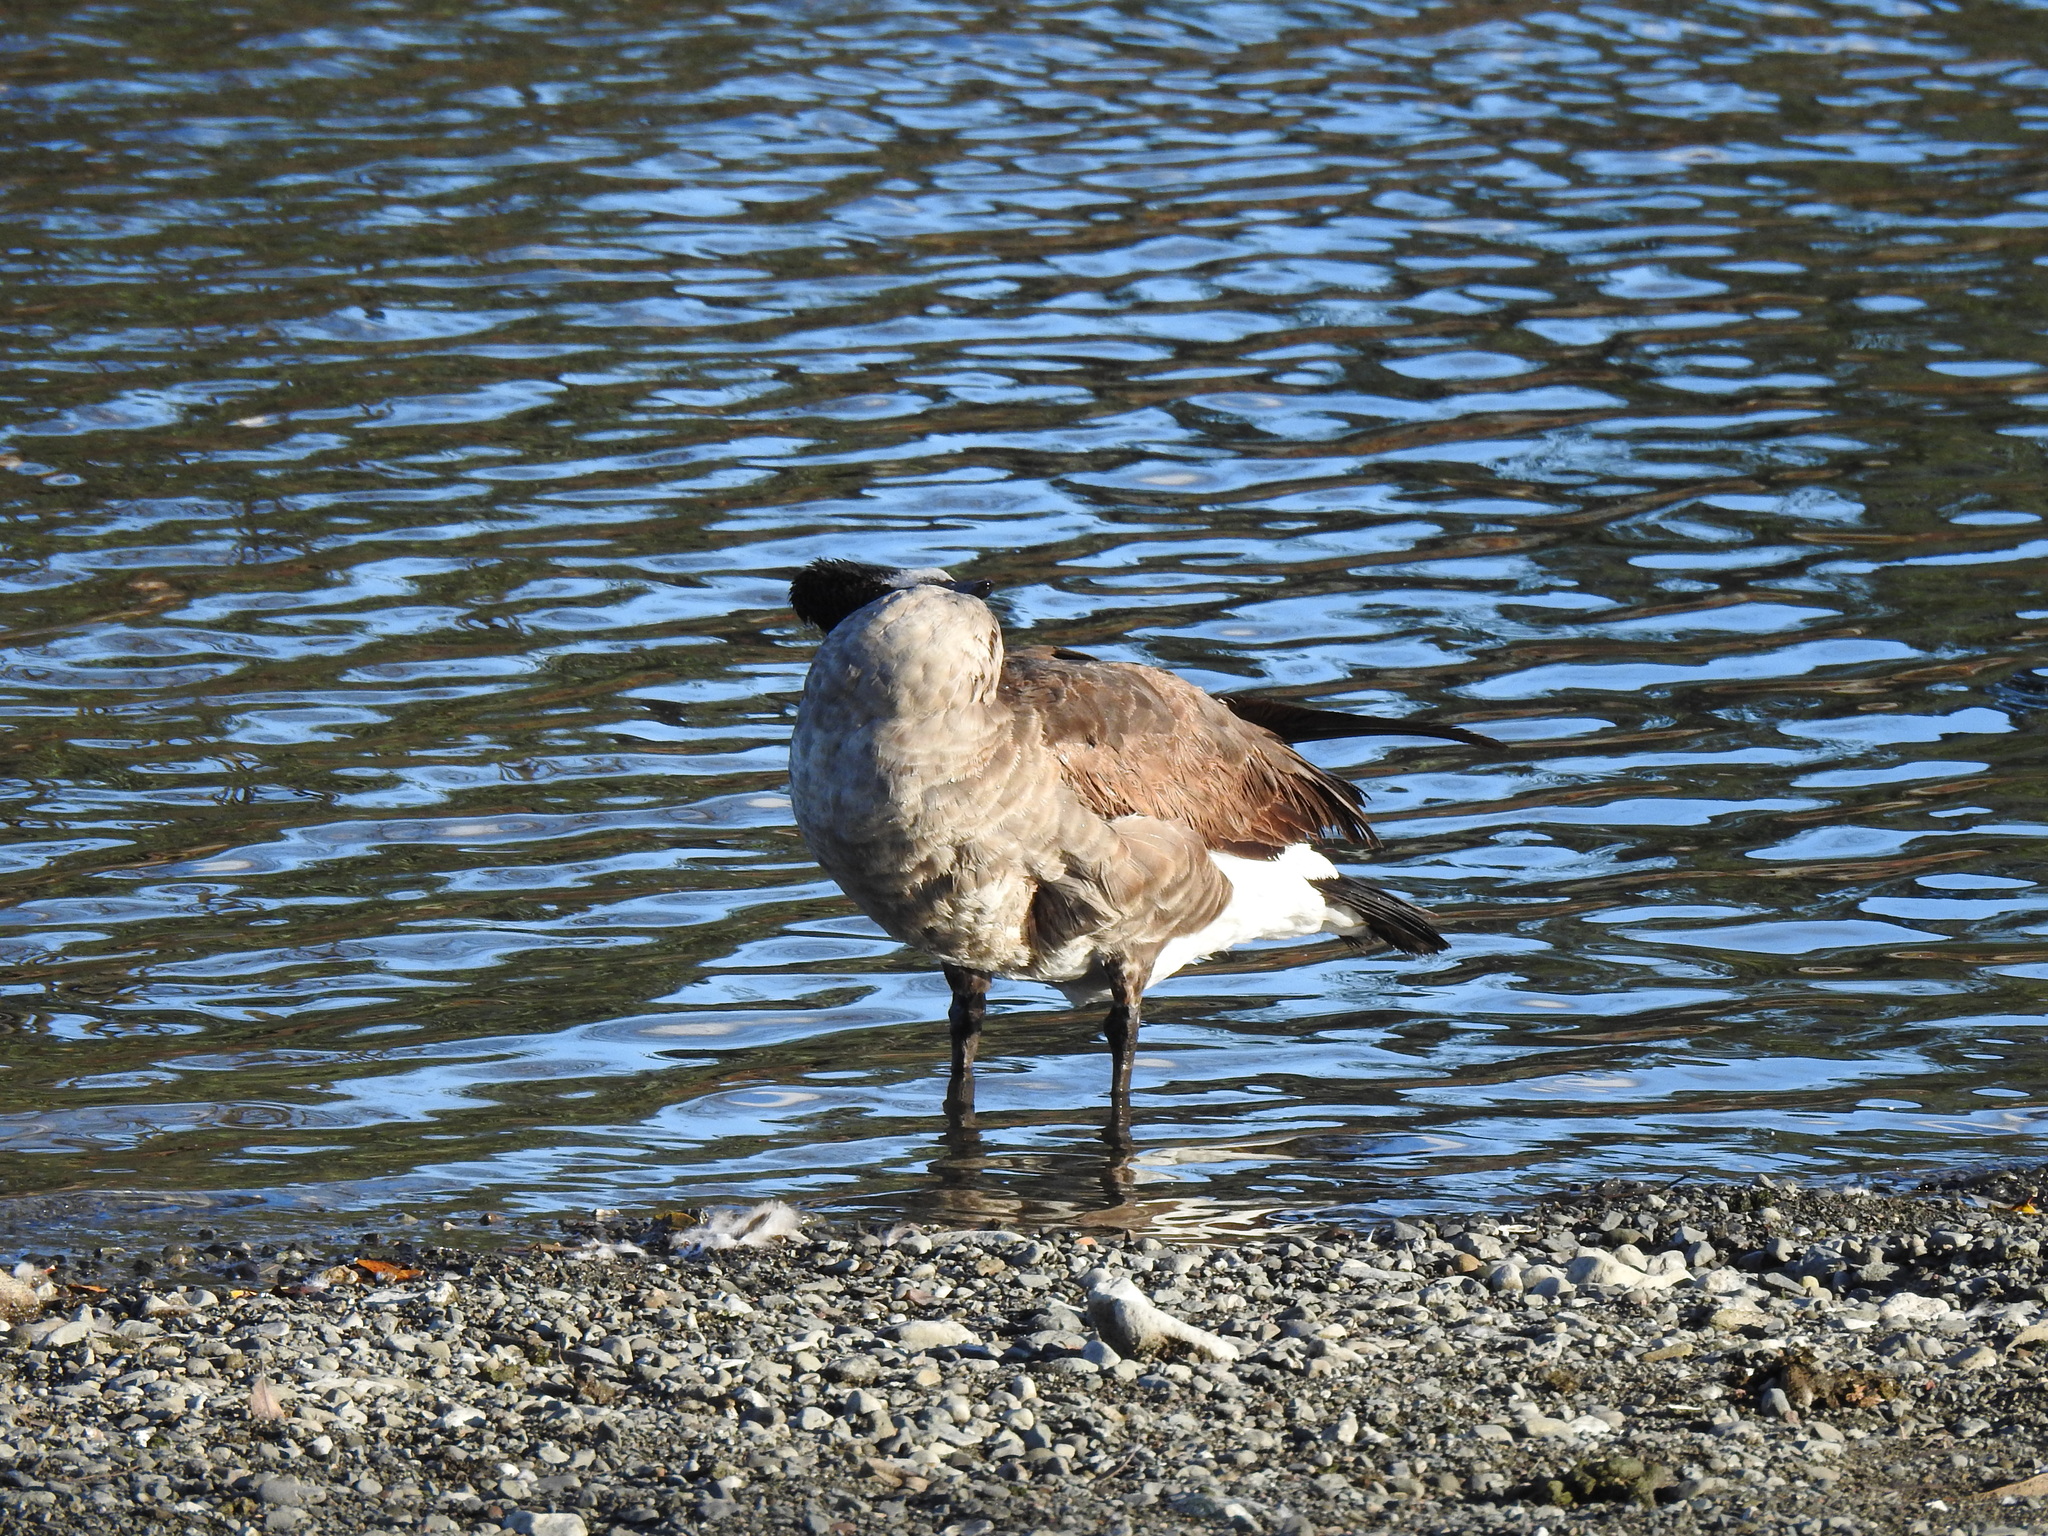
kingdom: Animalia
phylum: Chordata
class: Aves
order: Anseriformes
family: Anatidae
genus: Branta
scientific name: Branta canadensis
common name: Canada goose
